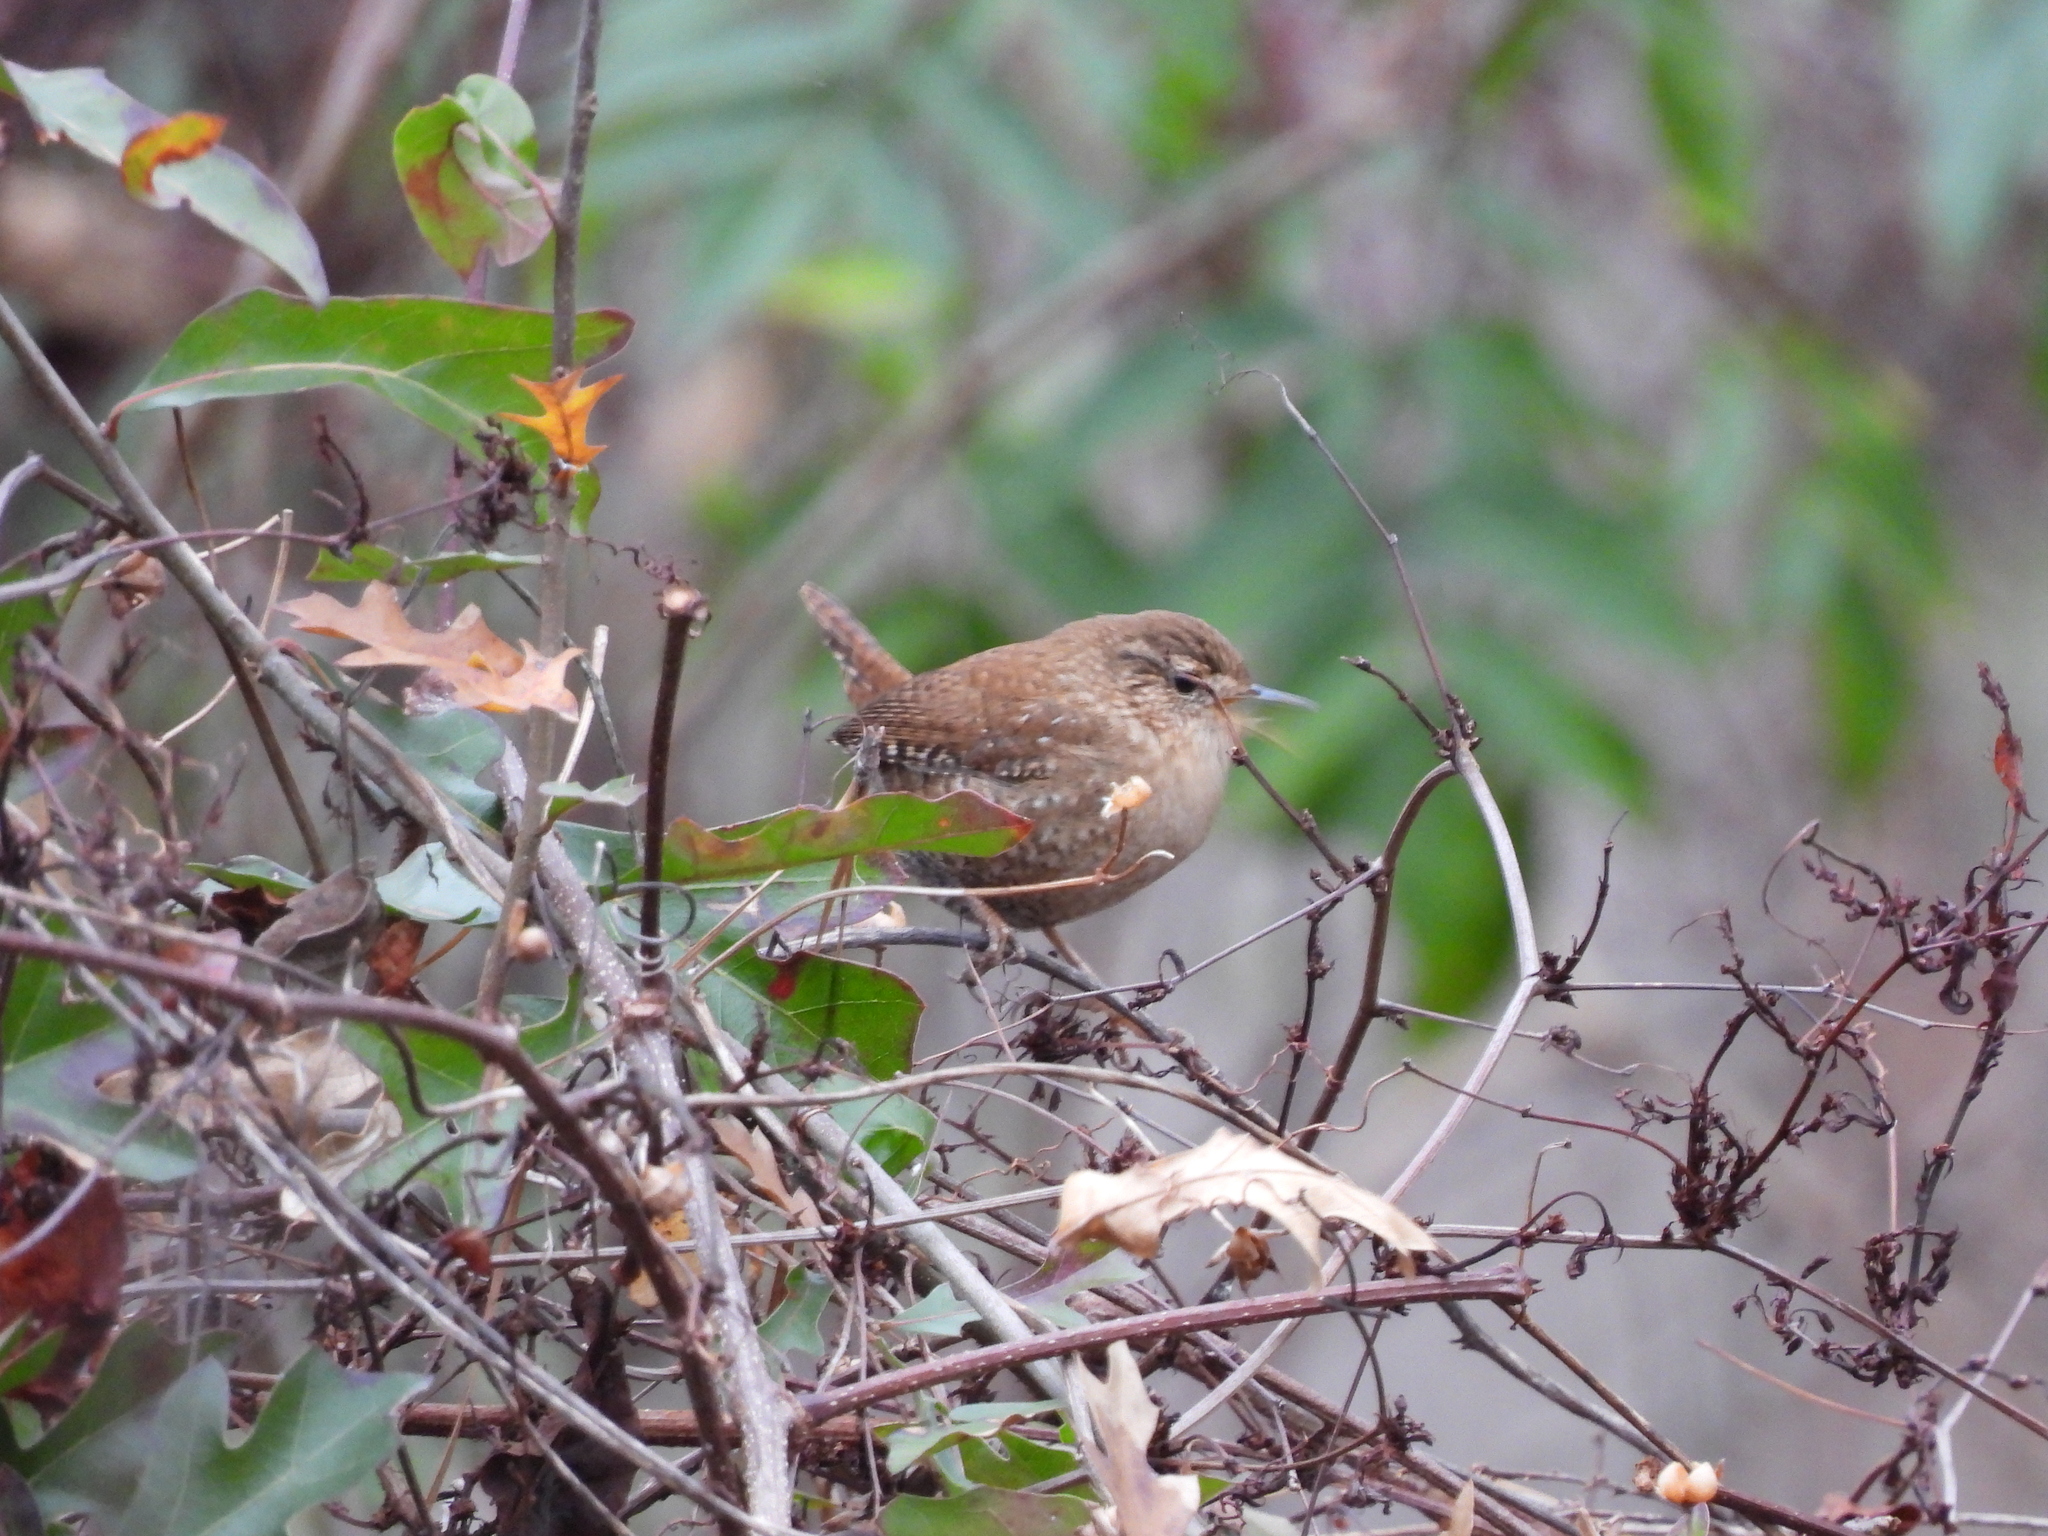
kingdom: Animalia
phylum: Chordata
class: Aves
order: Passeriformes
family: Troglodytidae
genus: Troglodytes
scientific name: Troglodytes hiemalis
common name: Winter wren
